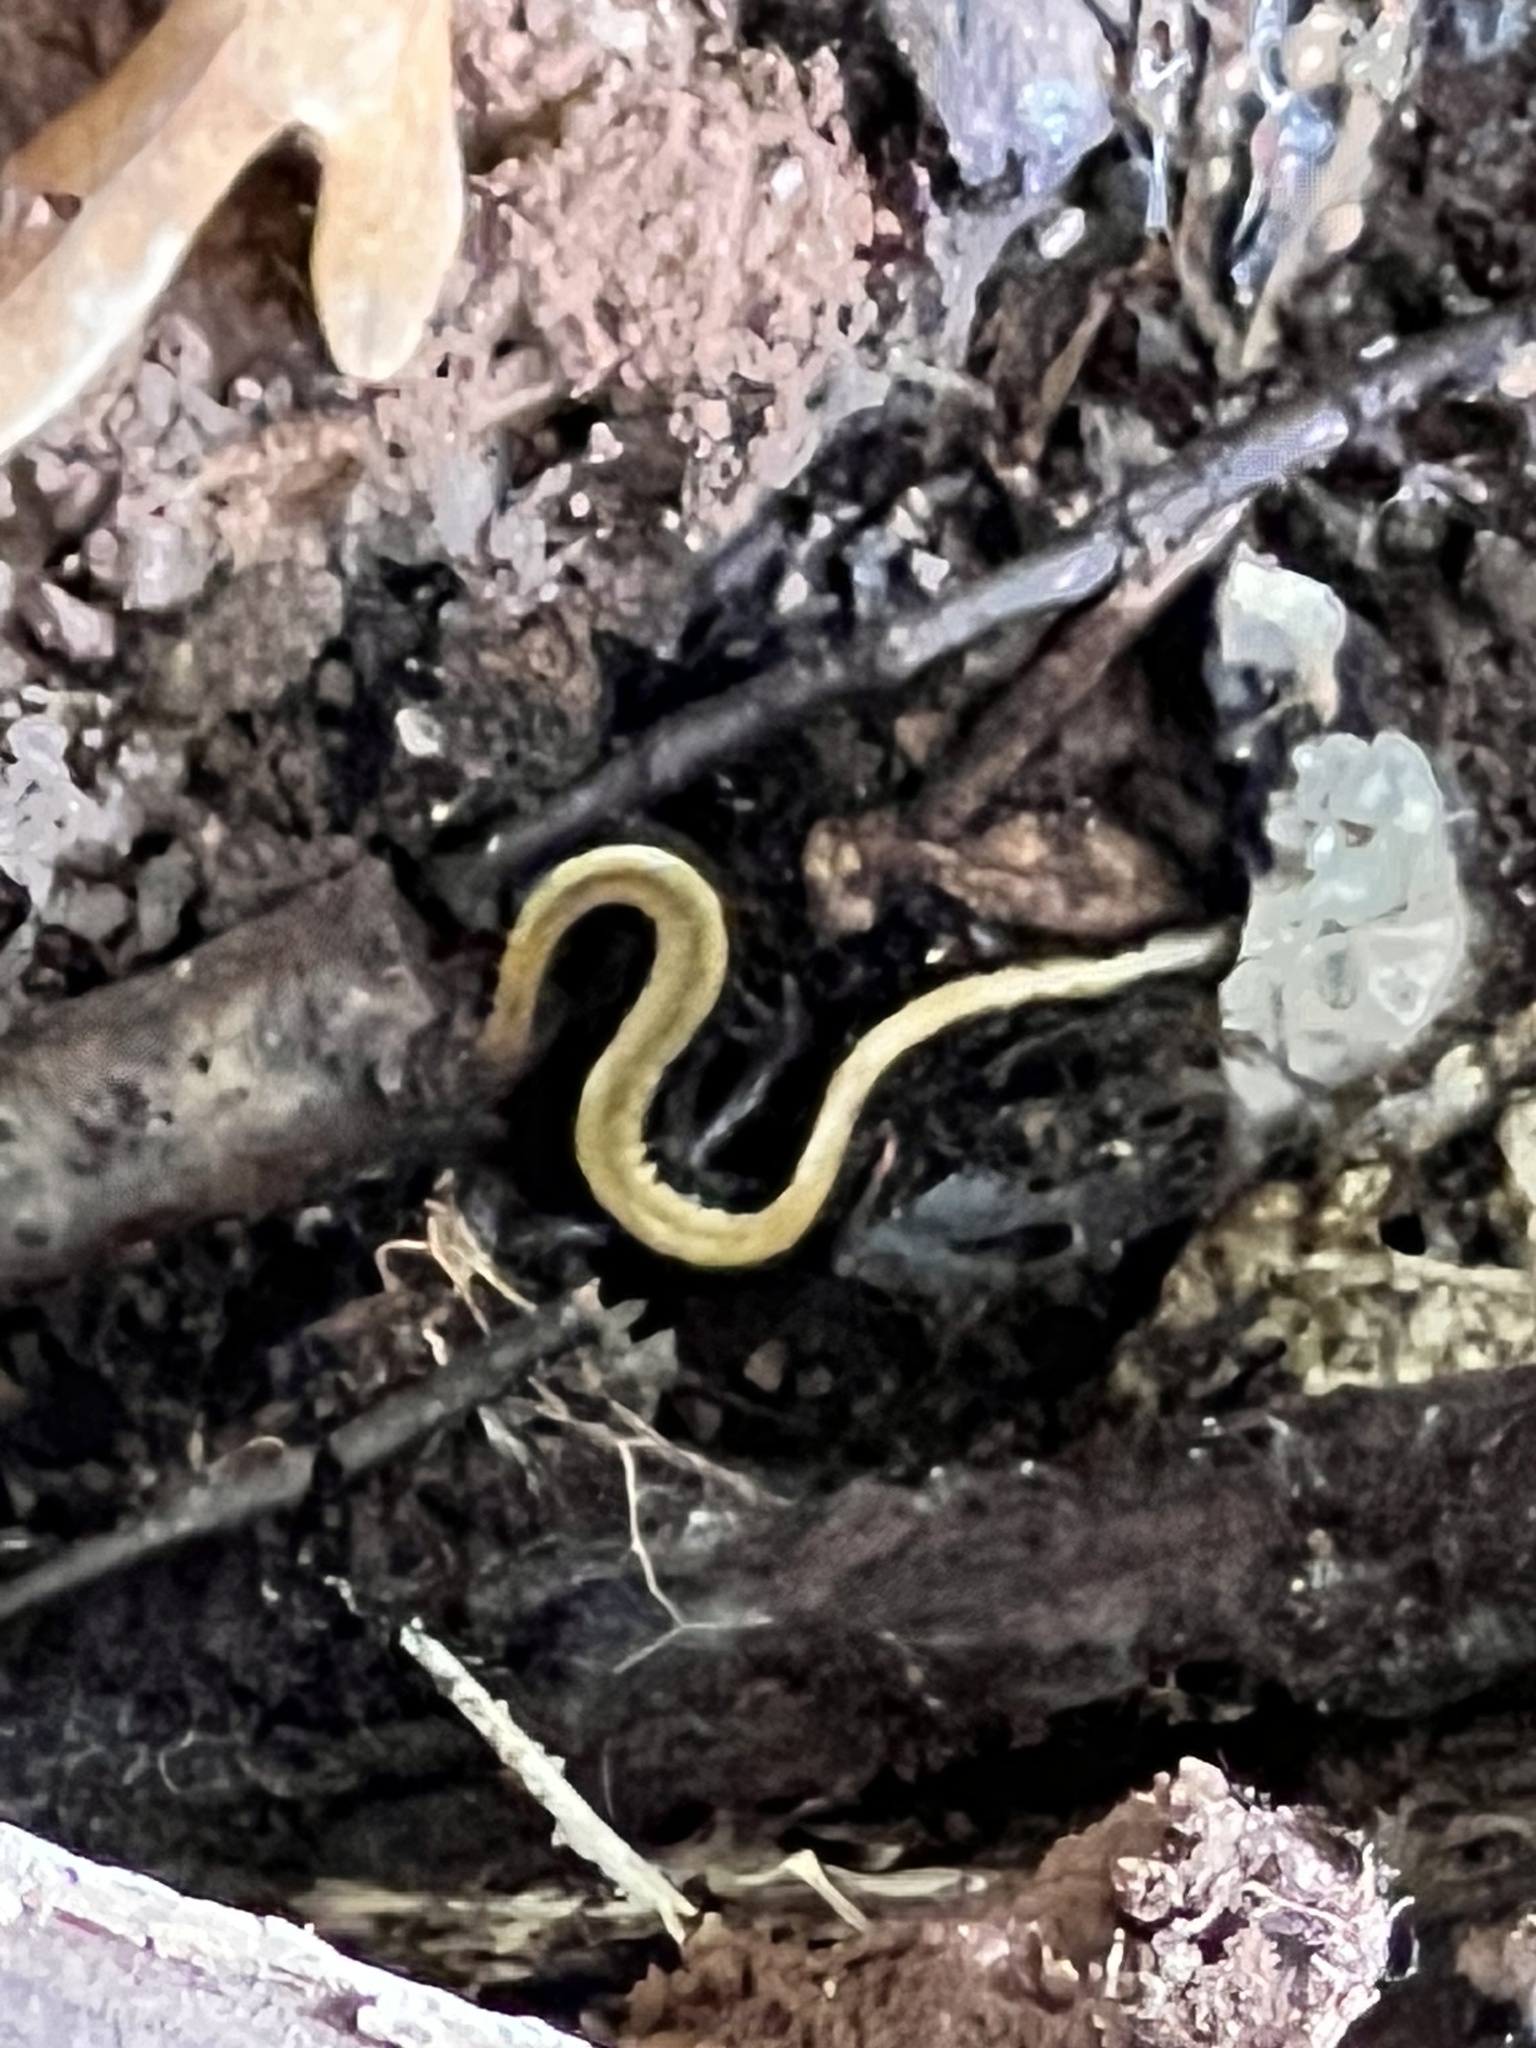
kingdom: Animalia
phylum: Chordata
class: Amphibia
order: Caudata
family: Plethodontidae
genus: Plethodon
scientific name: Plethodon cinereus
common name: Redback salamander
